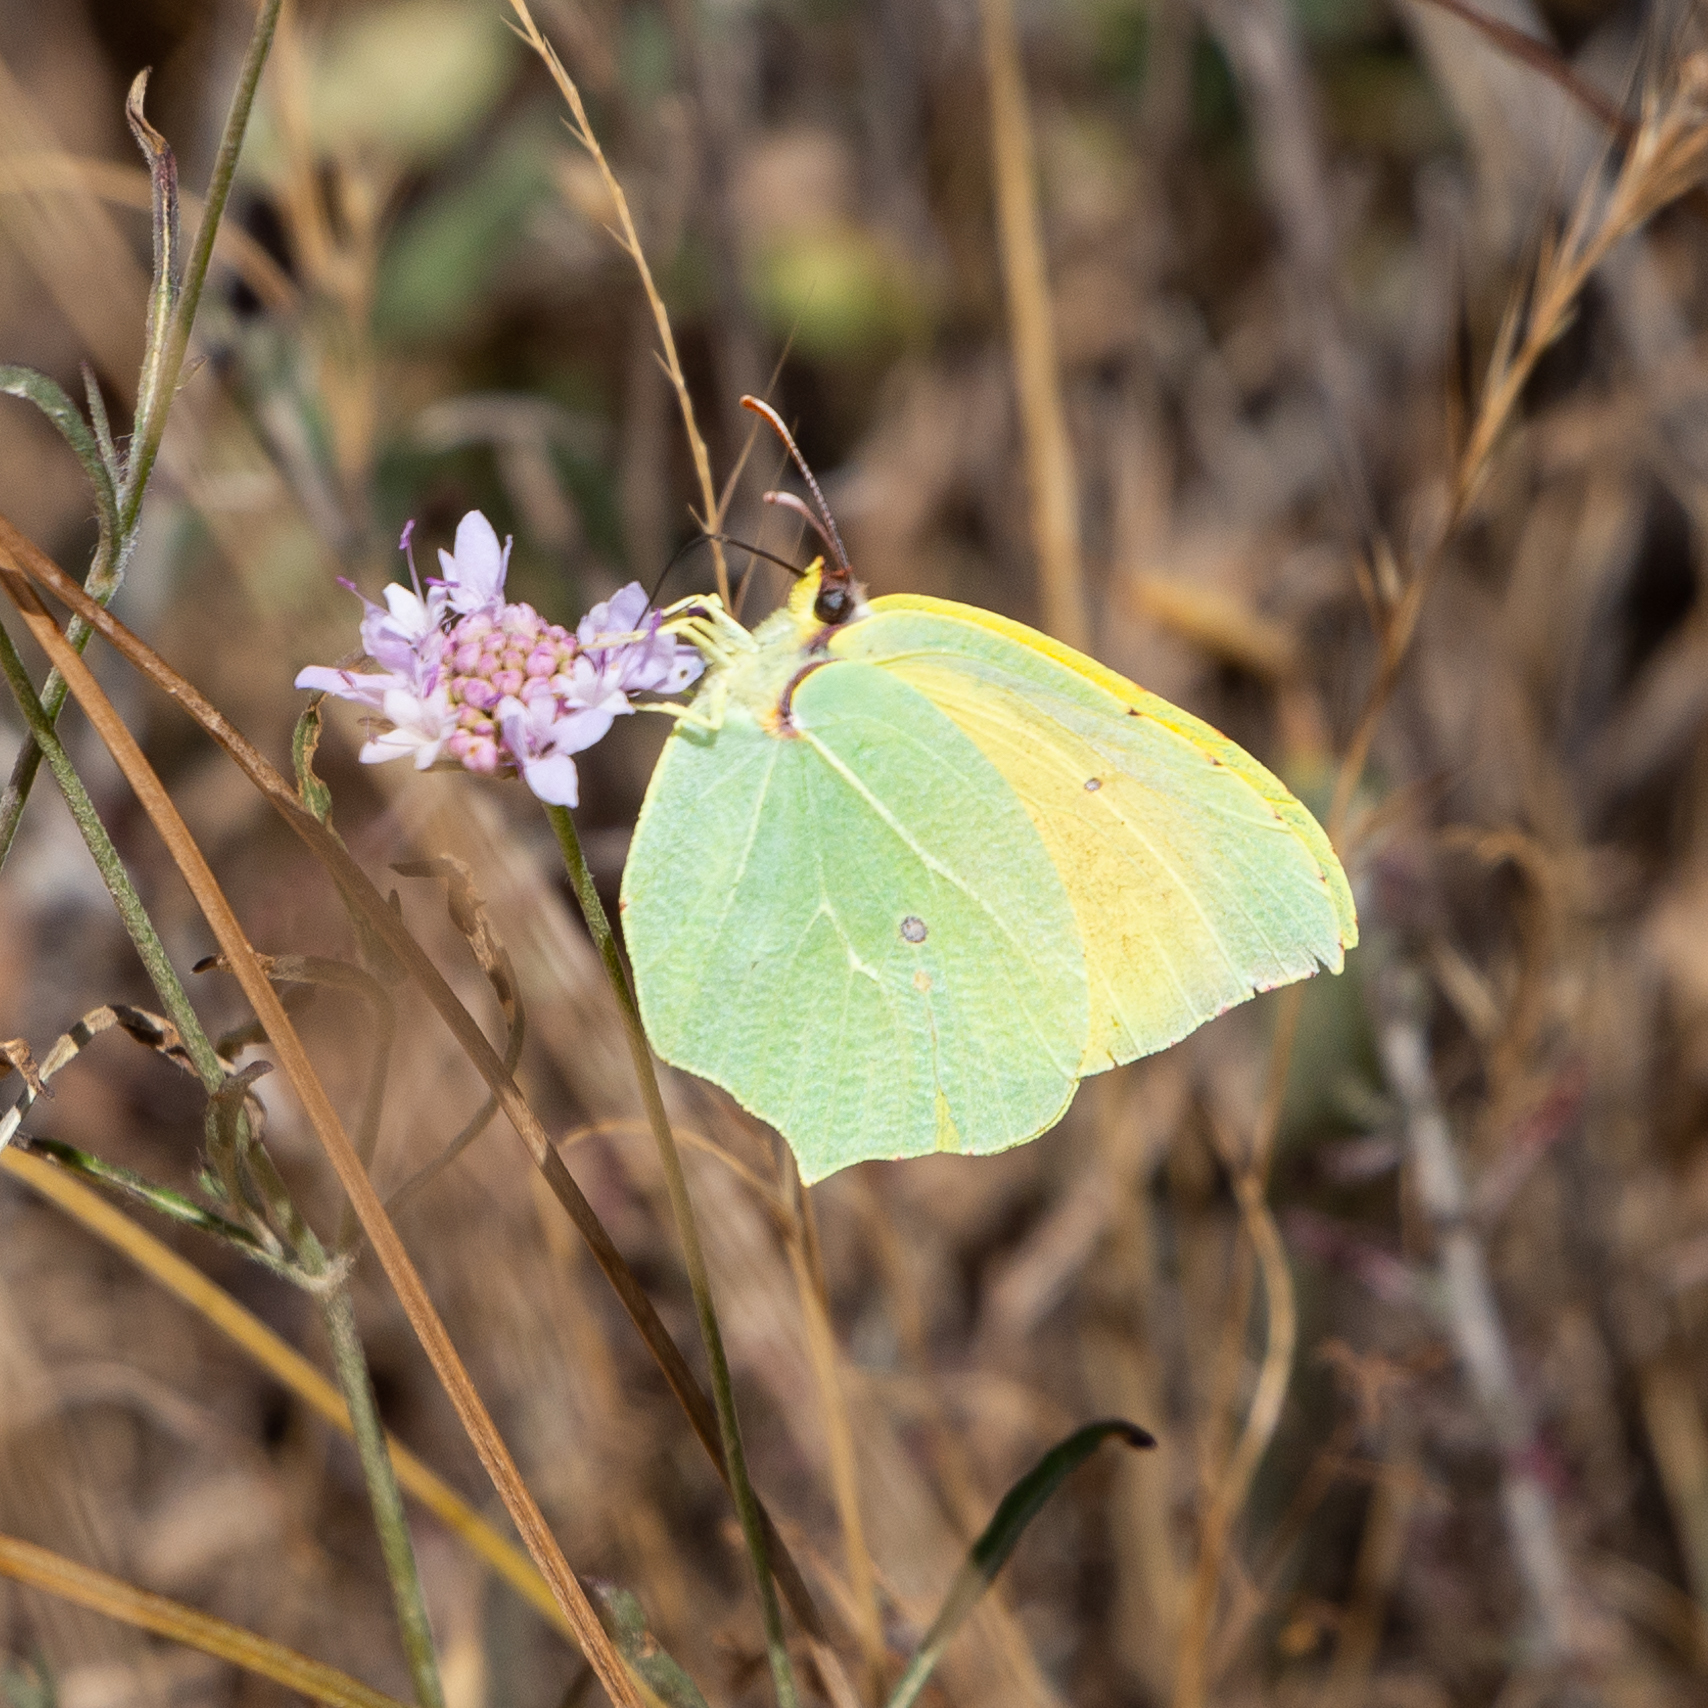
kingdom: Animalia
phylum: Arthropoda
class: Insecta
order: Lepidoptera
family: Pieridae
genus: Gonepteryx
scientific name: Gonepteryx cleopatra
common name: Cleopatra
